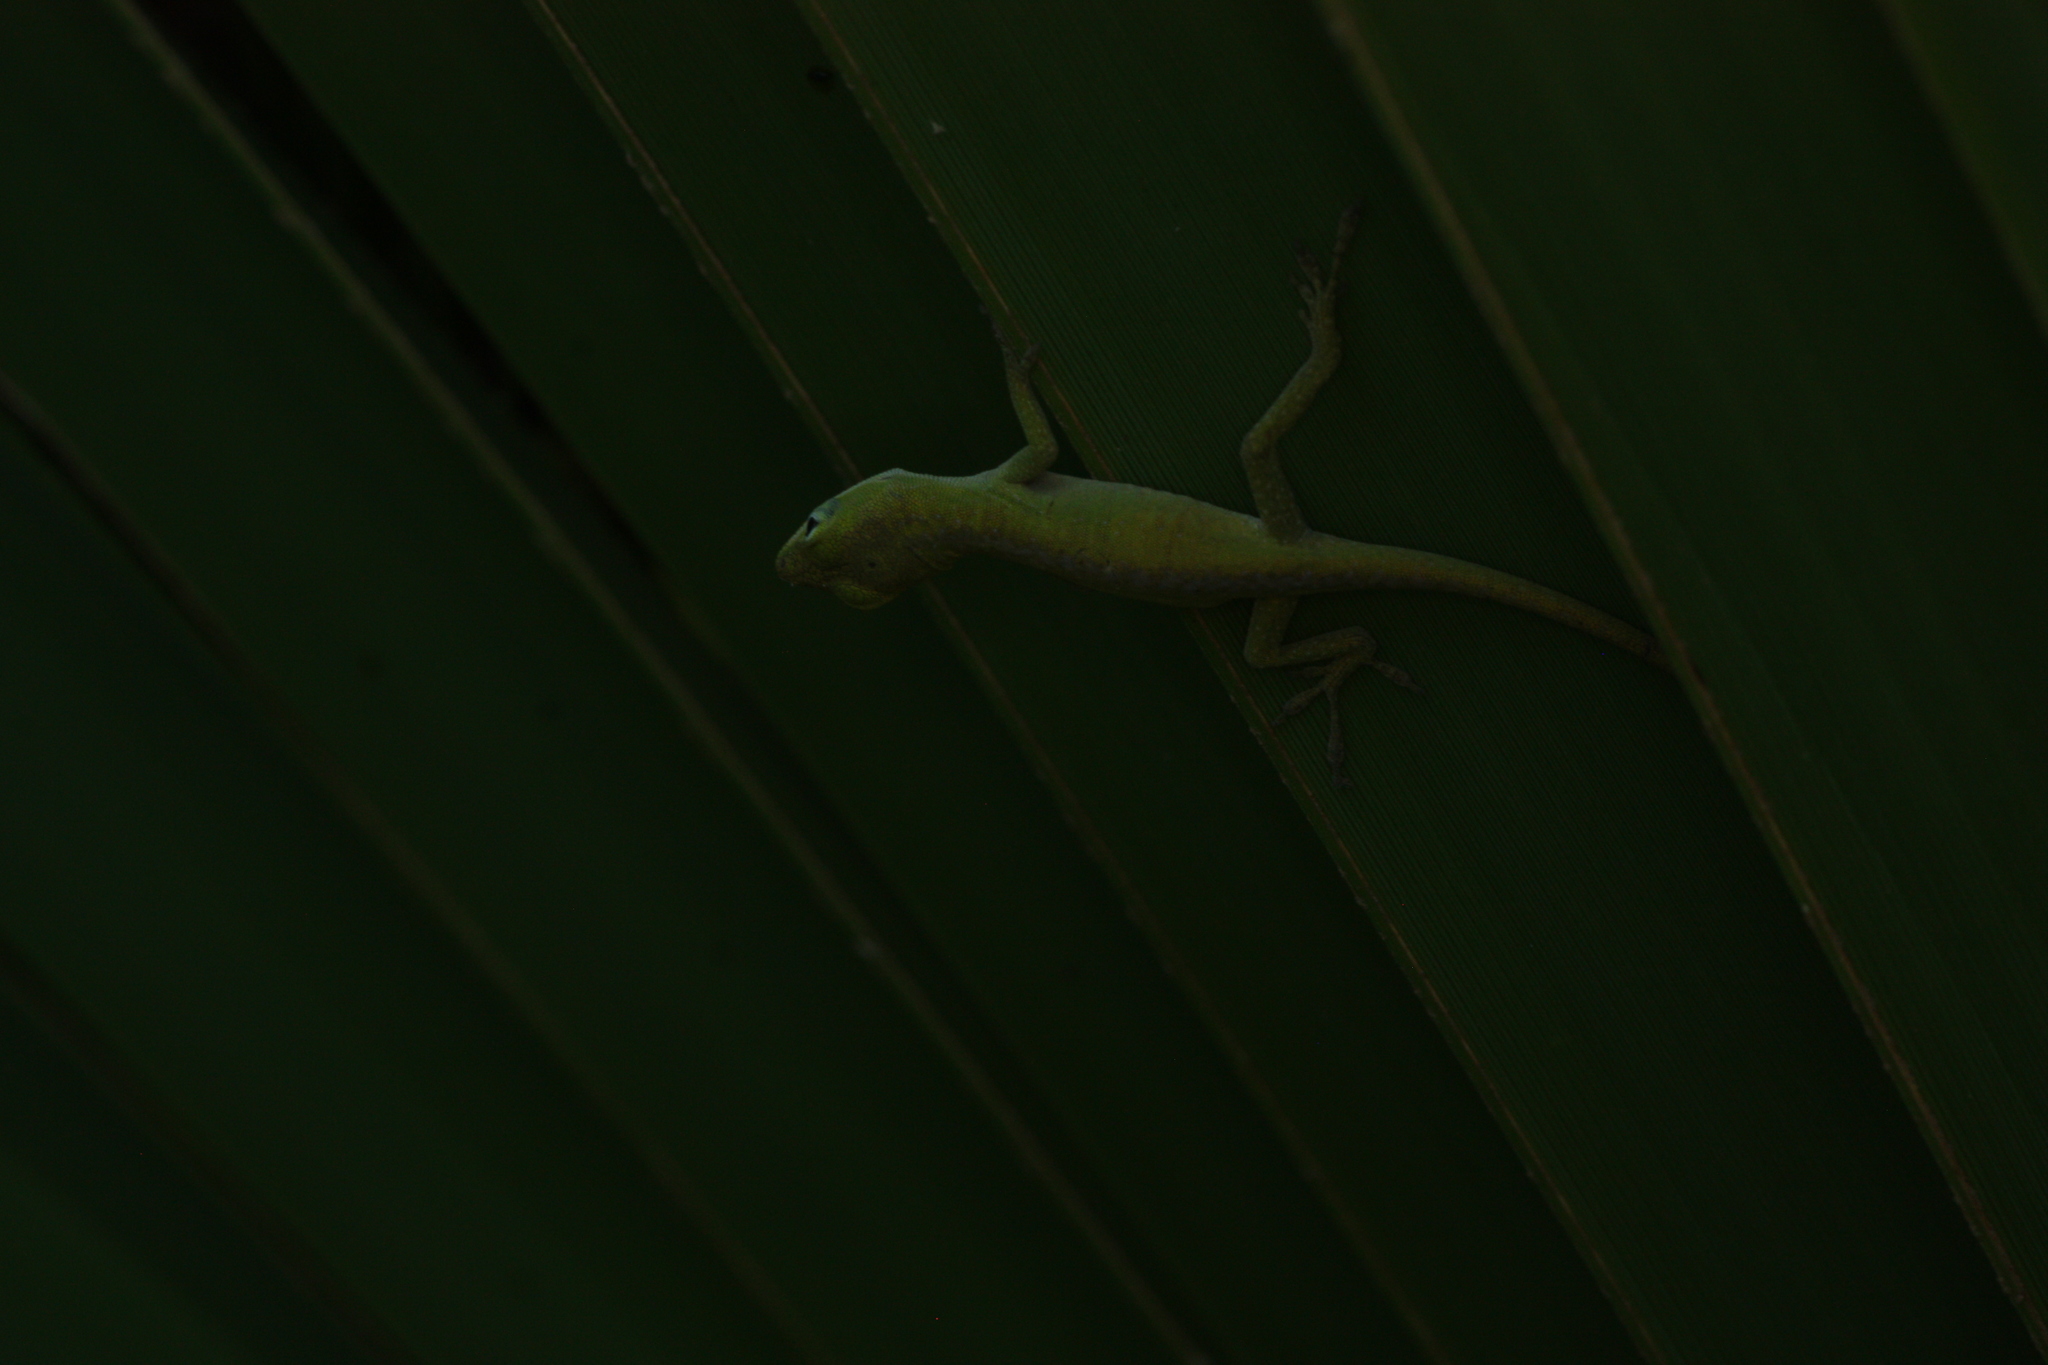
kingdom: Animalia
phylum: Chordata
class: Squamata
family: Dactyloidae
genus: Anolis
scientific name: Anolis carolinensis
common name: Green anole
